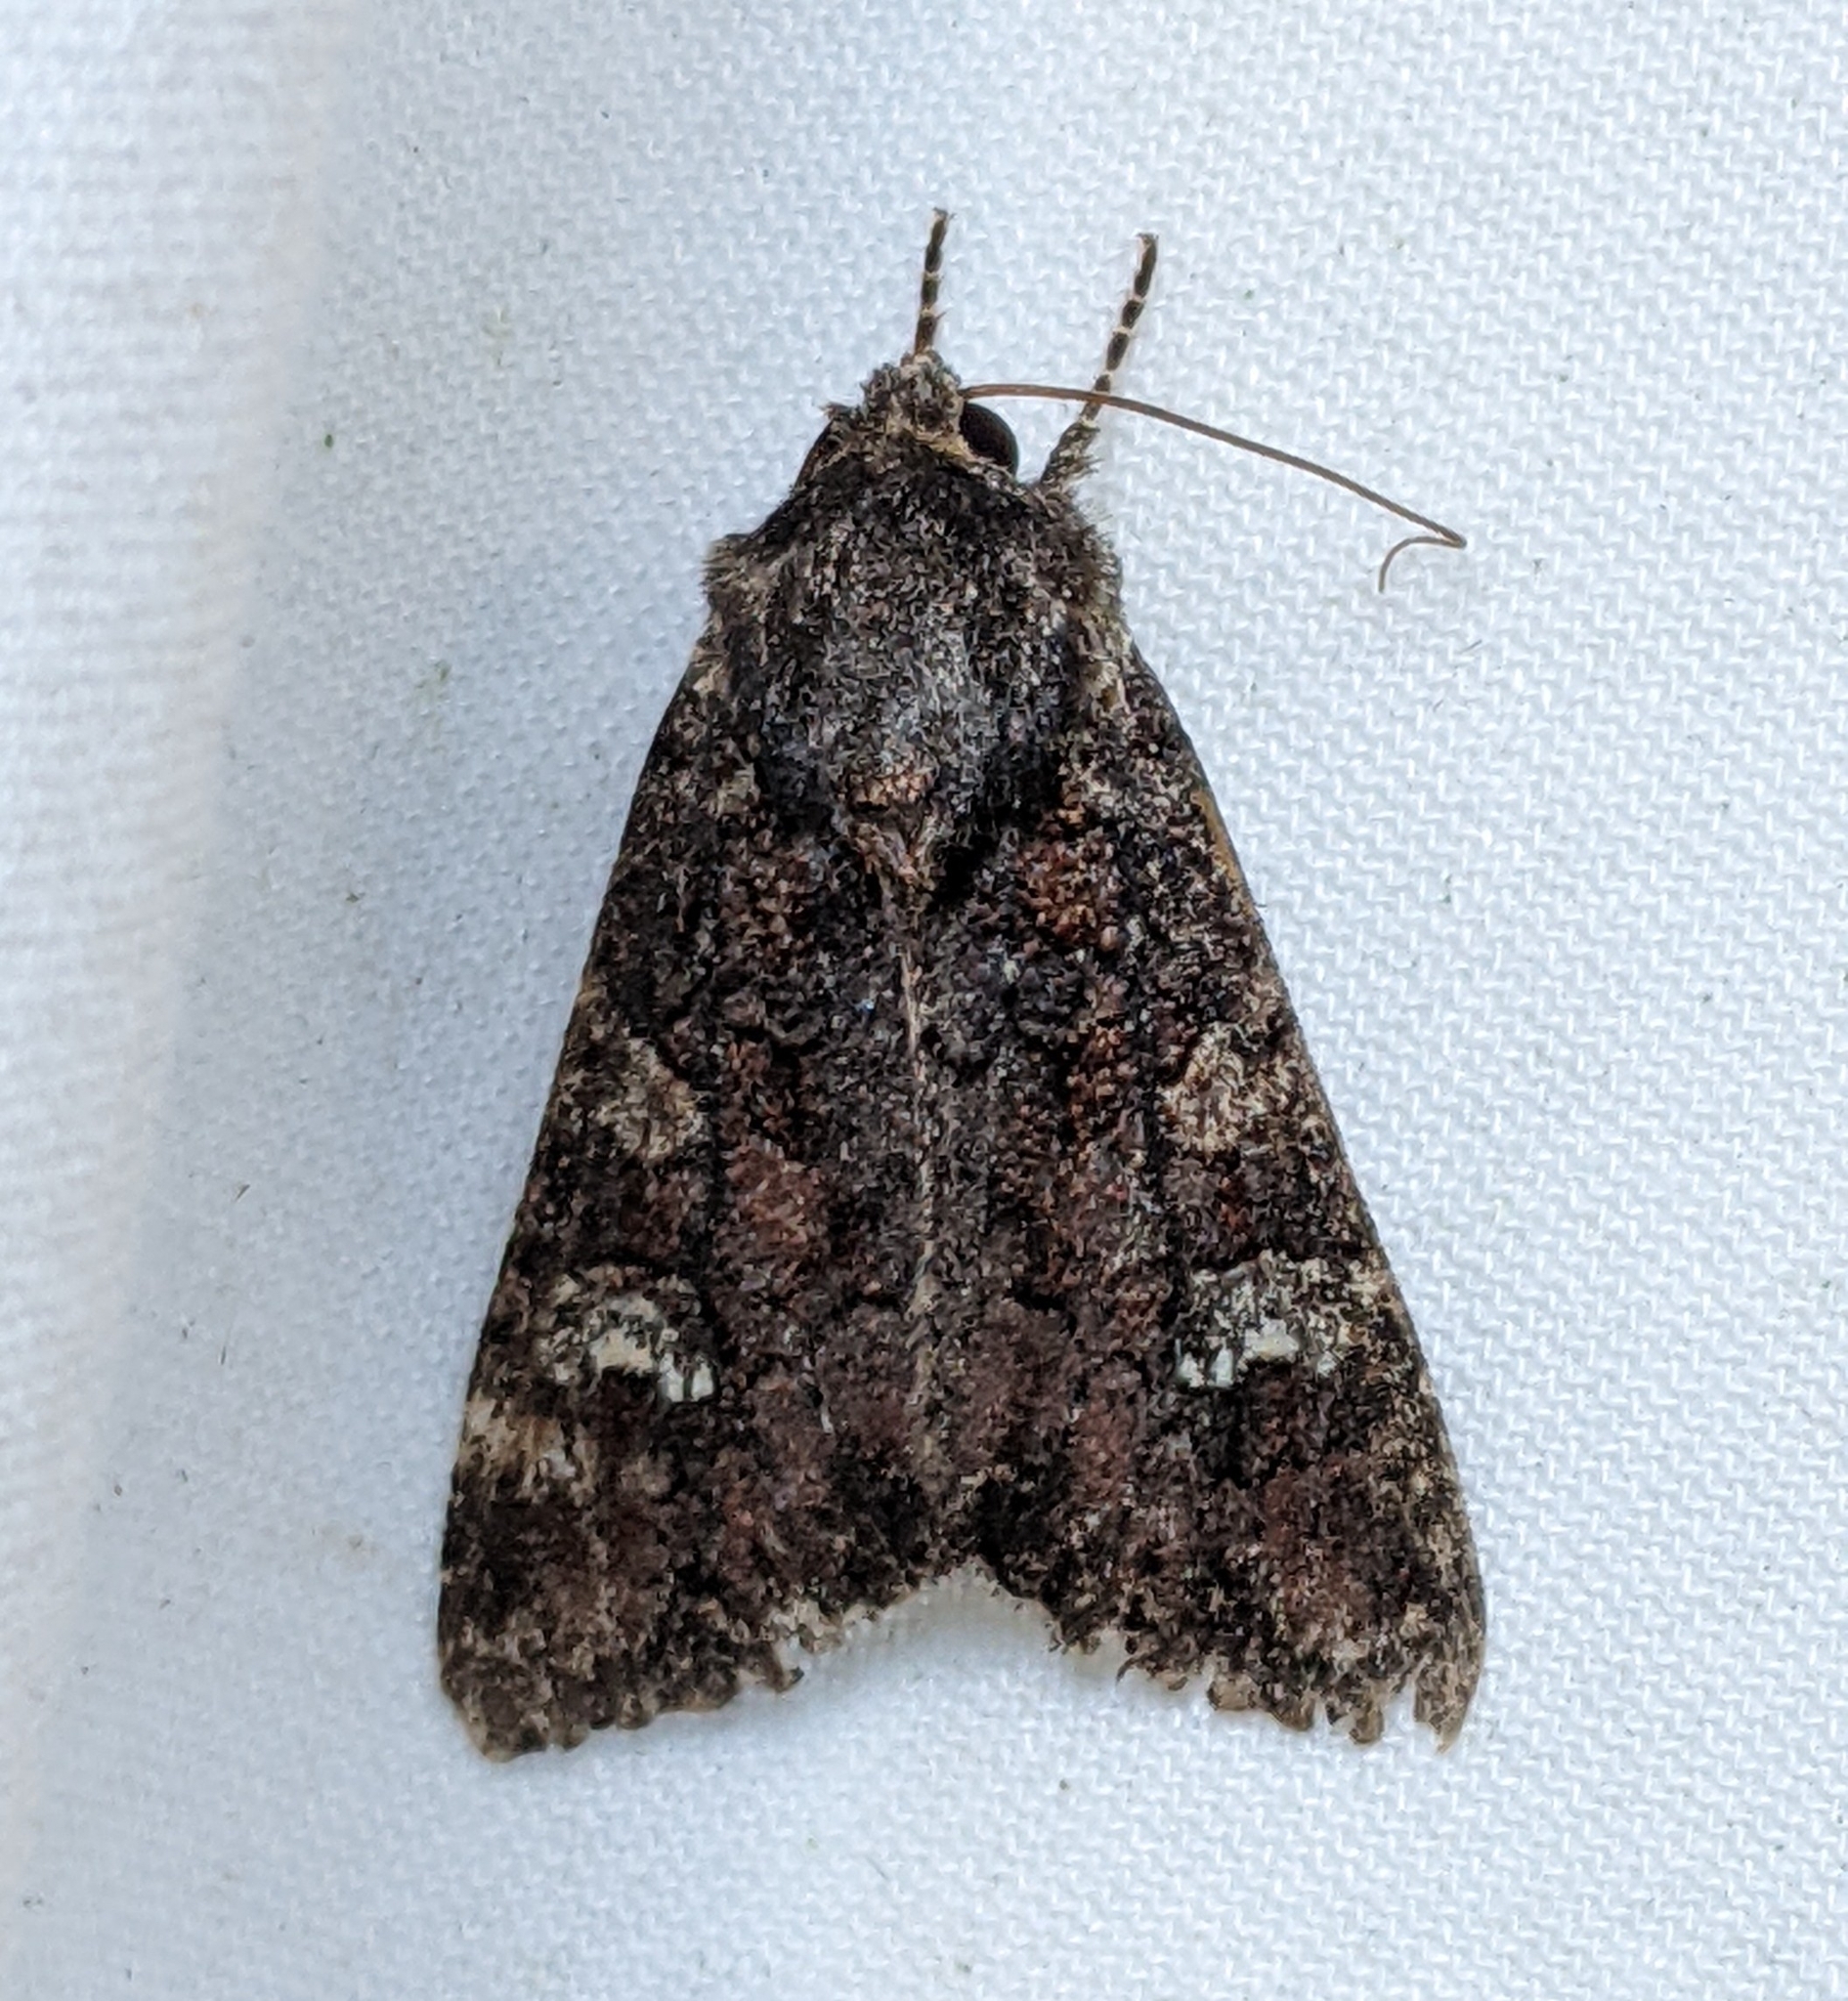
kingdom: Animalia
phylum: Arthropoda
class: Insecta
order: Lepidoptera
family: Noctuidae
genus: Apamea
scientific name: Apamea amputatrix
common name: Yellow-headed cutworm moth
